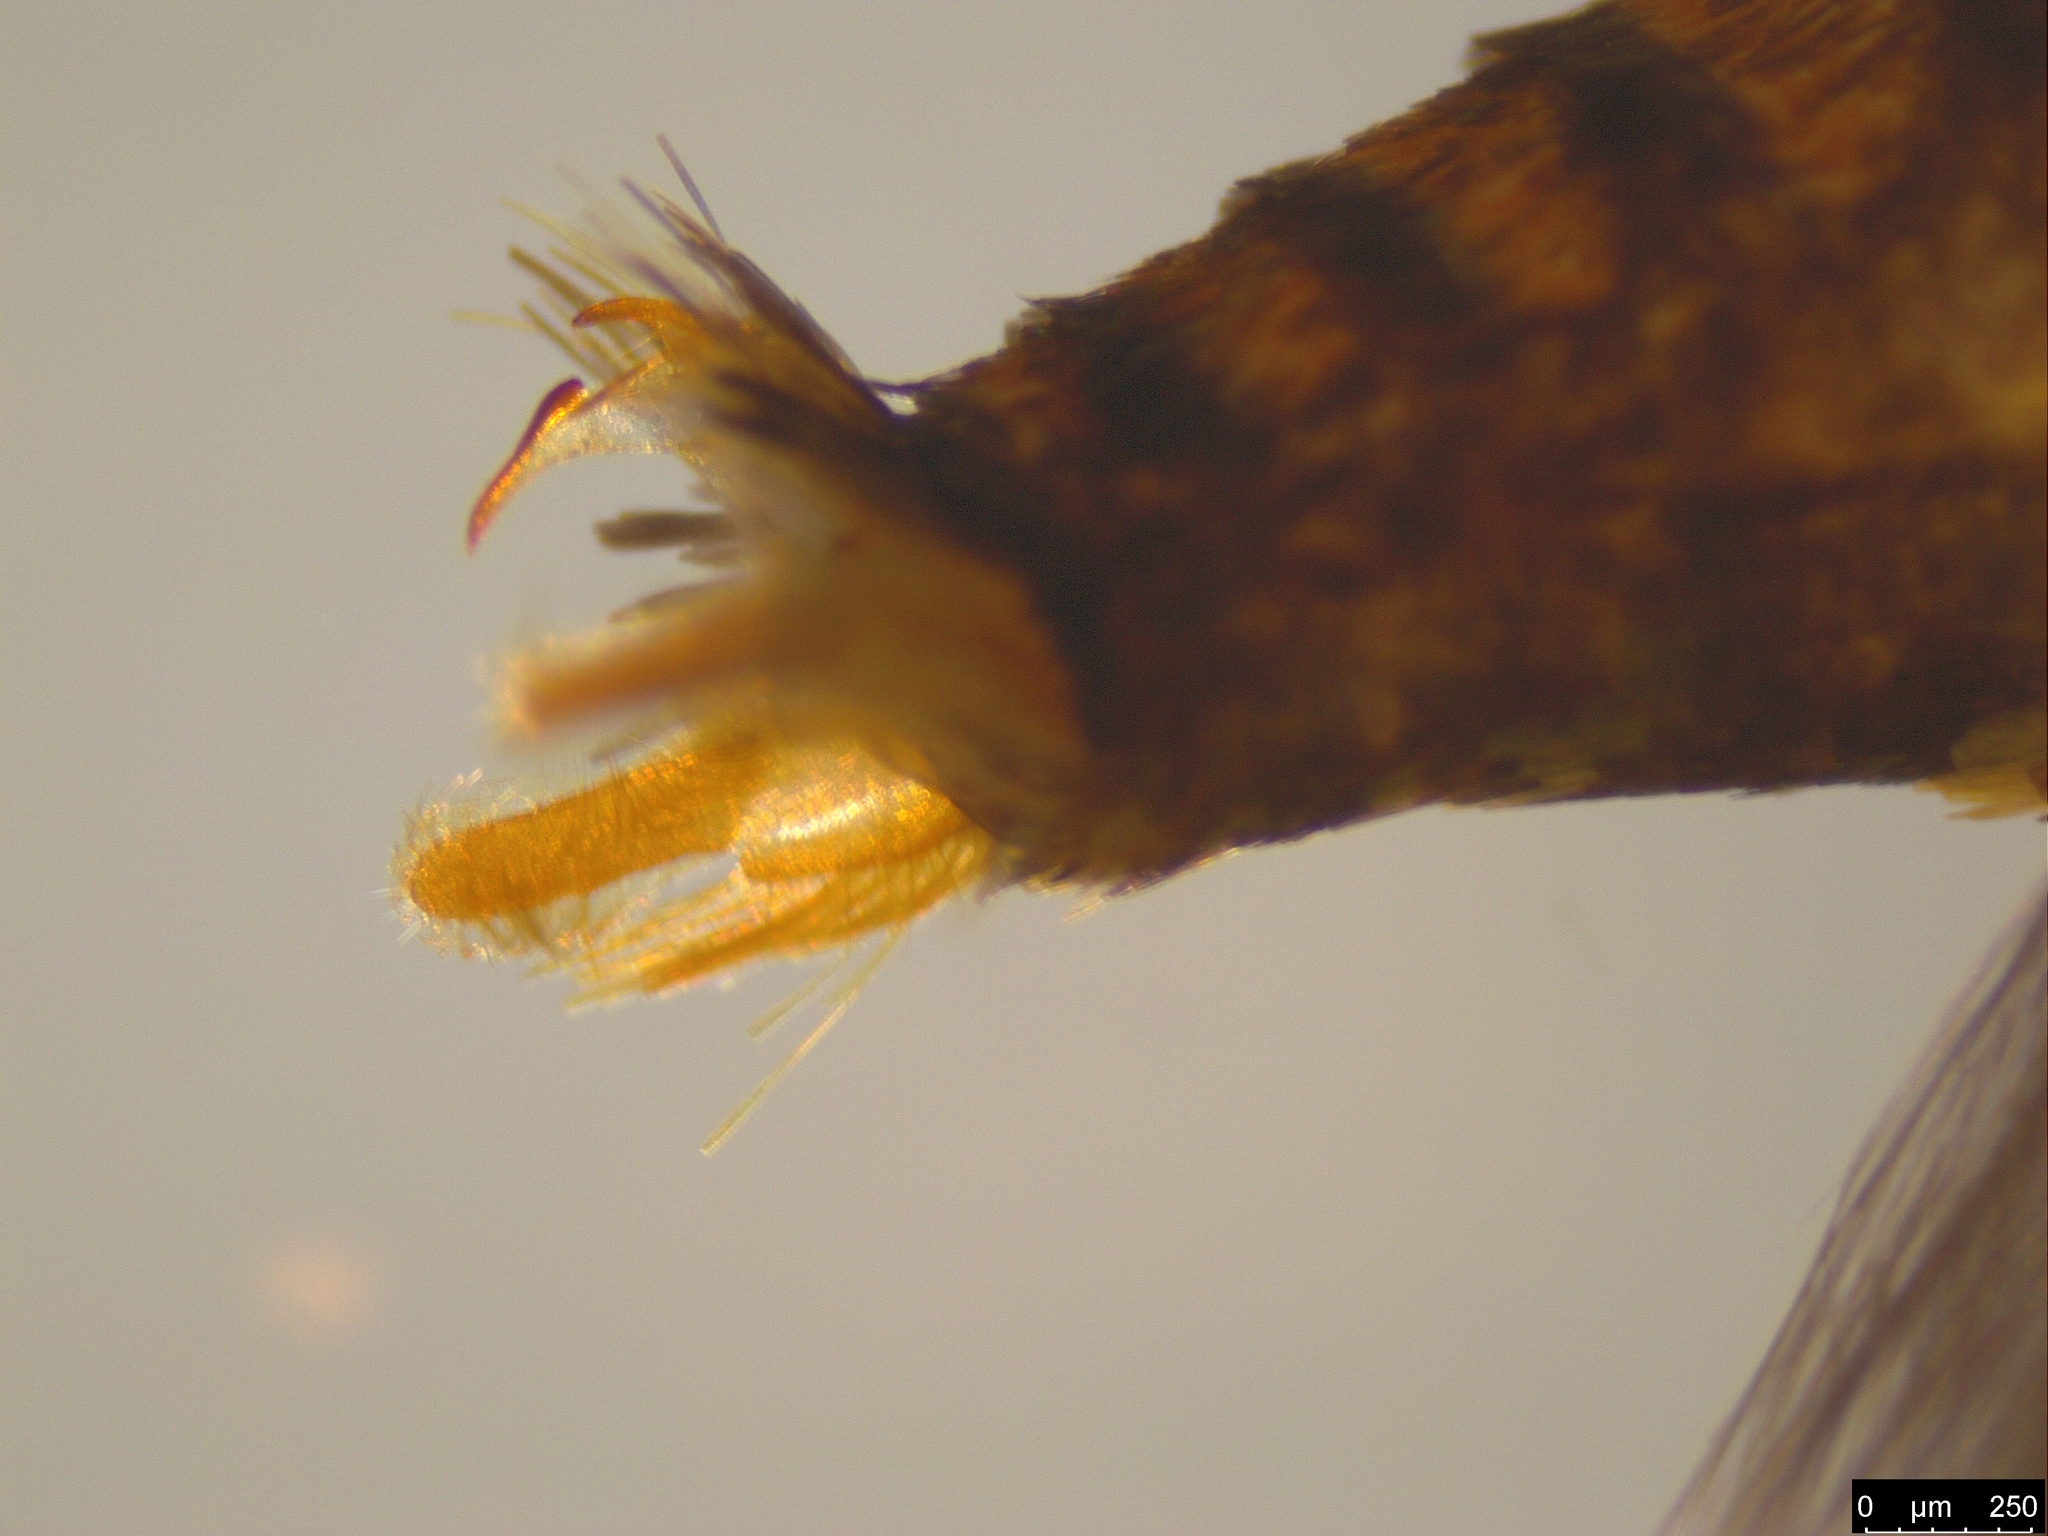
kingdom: Animalia
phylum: Arthropoda
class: Insecta
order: Lepidoptera
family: Oecophoridae
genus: Olbonoma
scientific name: Olbonoma triptycha
